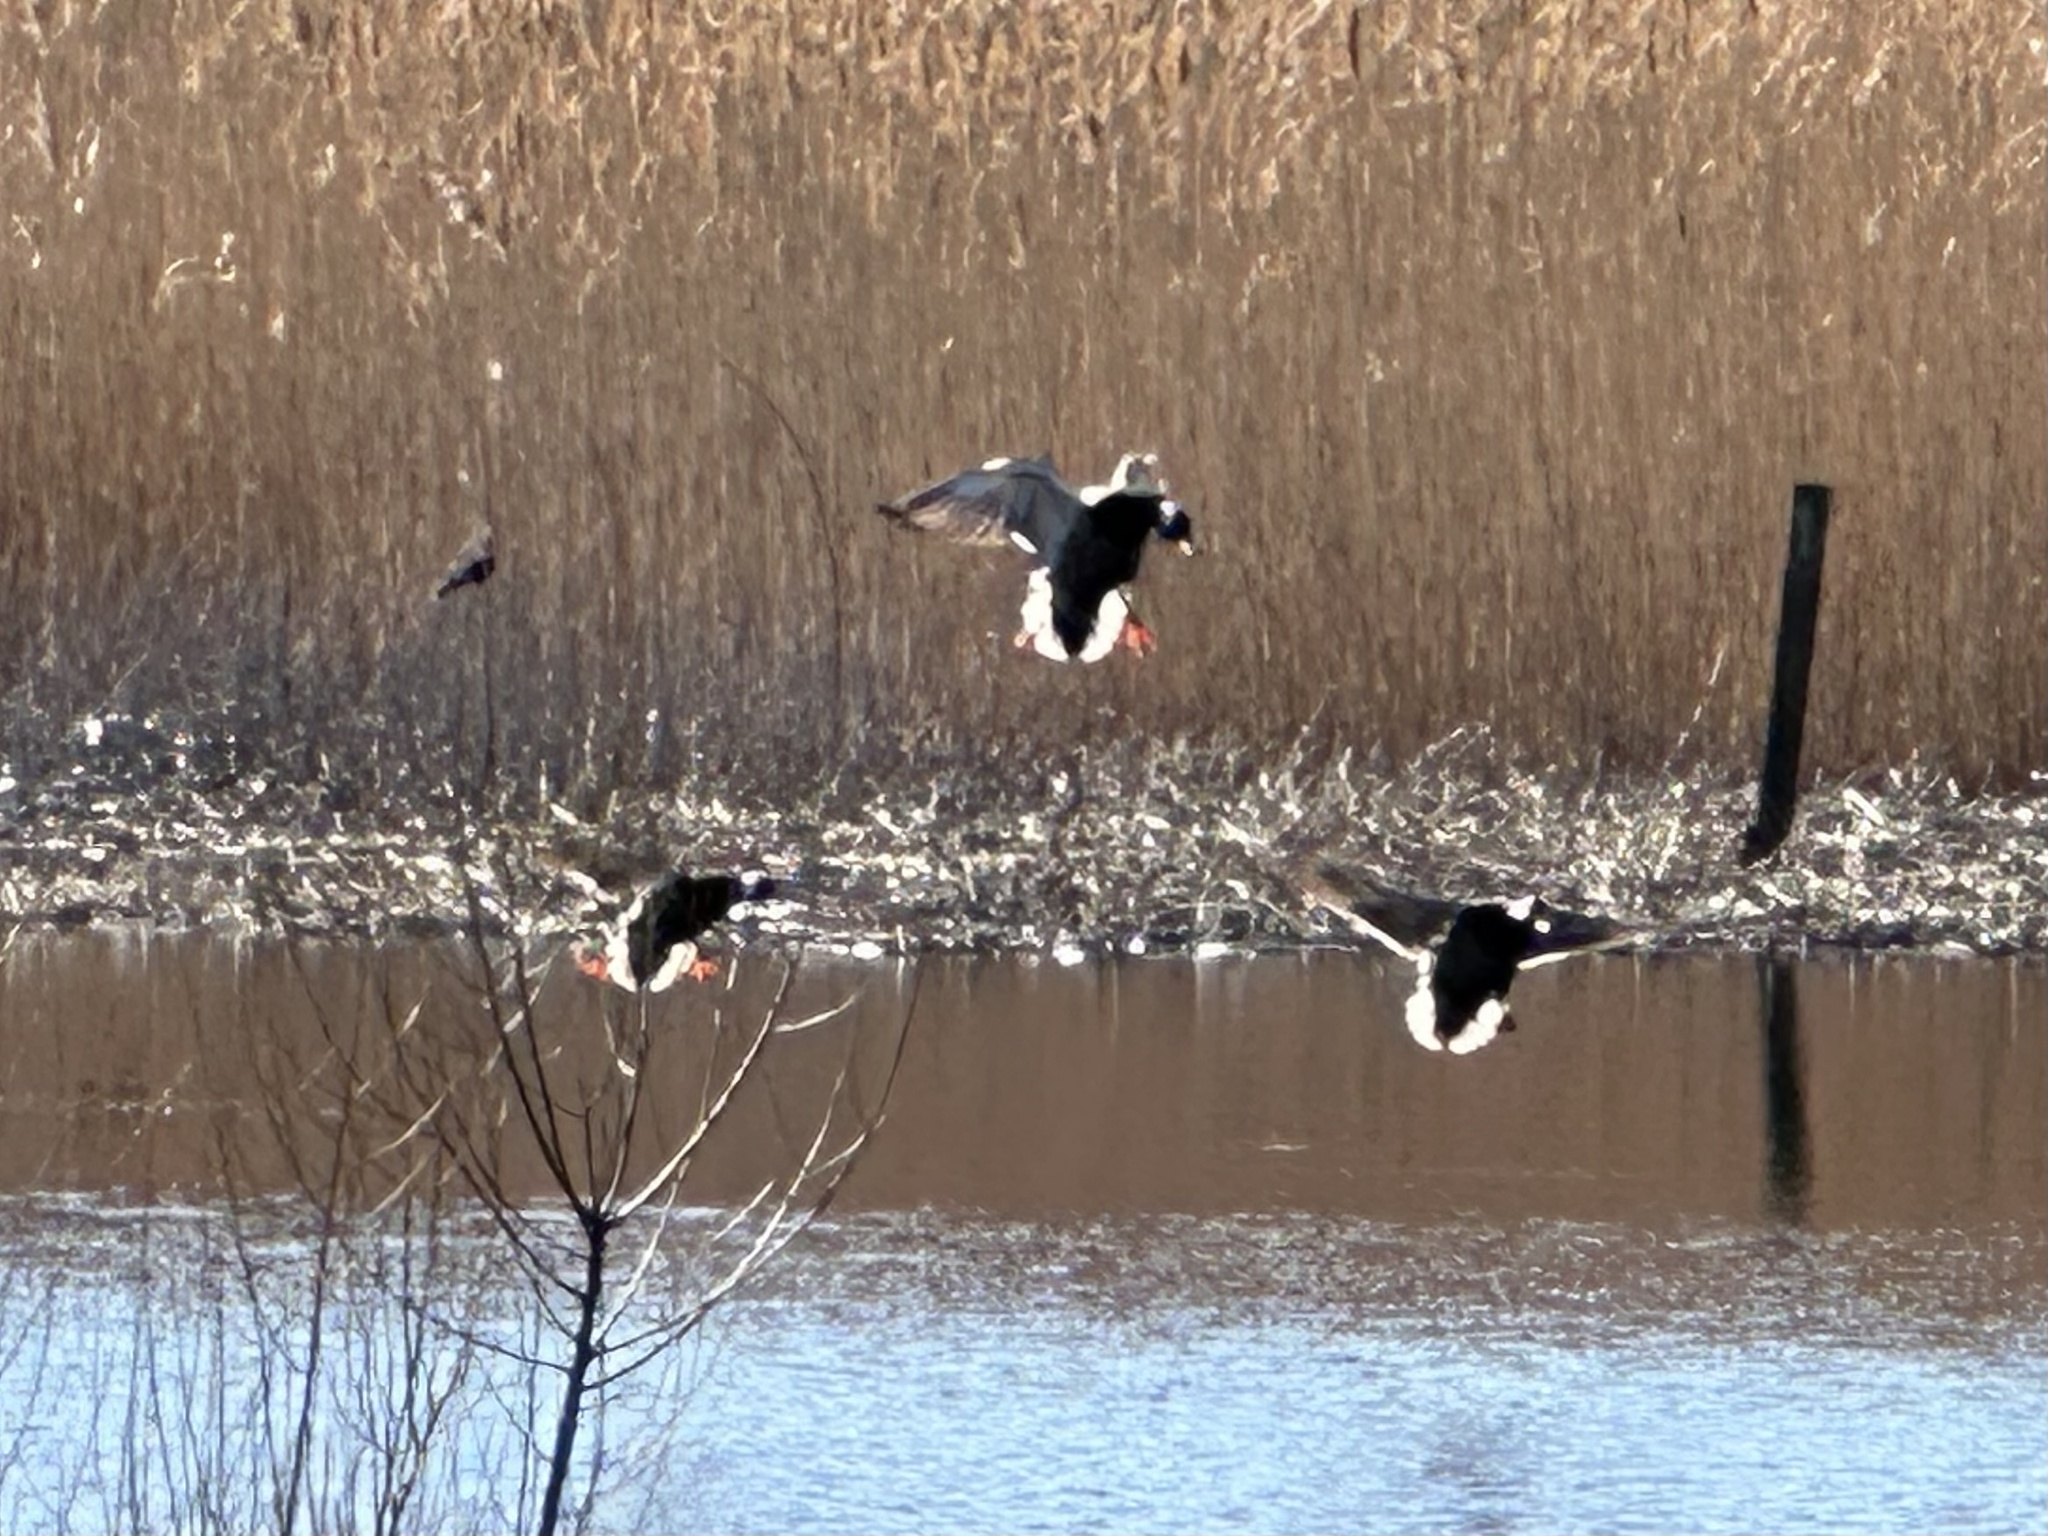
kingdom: Animalia
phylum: Chordata
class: Aves
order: Anseriformes
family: Anatidae
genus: Anas
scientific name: Anas platyrhynchos
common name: Mallard
